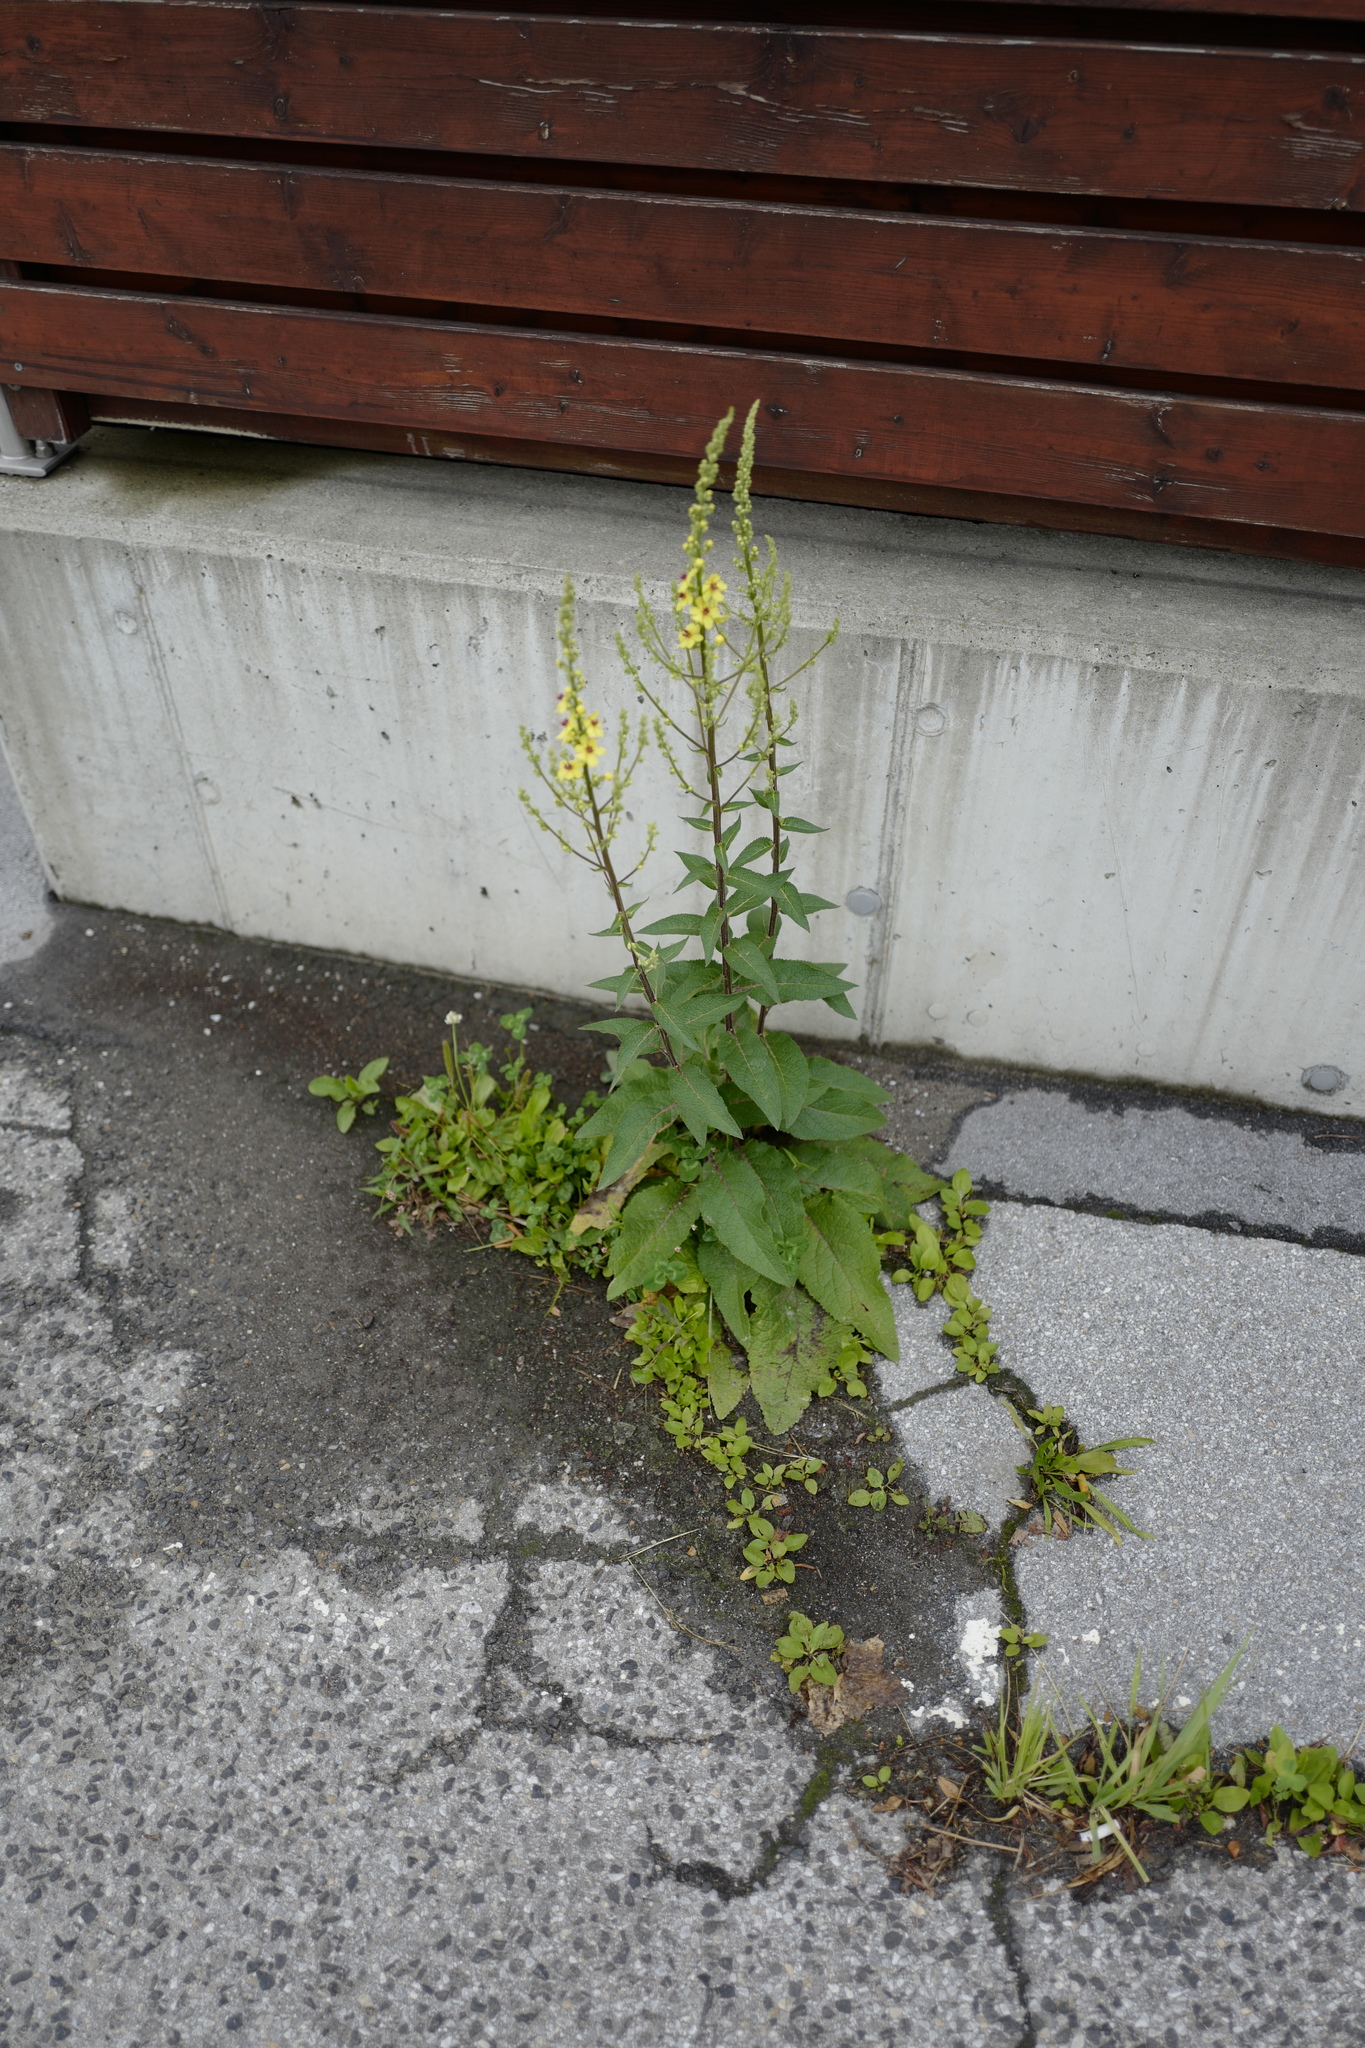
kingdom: Plantae
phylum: Tracheophyta
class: Magnoliopsida
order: Lamiales
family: Scrophulariaceae
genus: Verbascum
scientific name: Verbascum chaixii
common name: Nettle-leaved mullein
